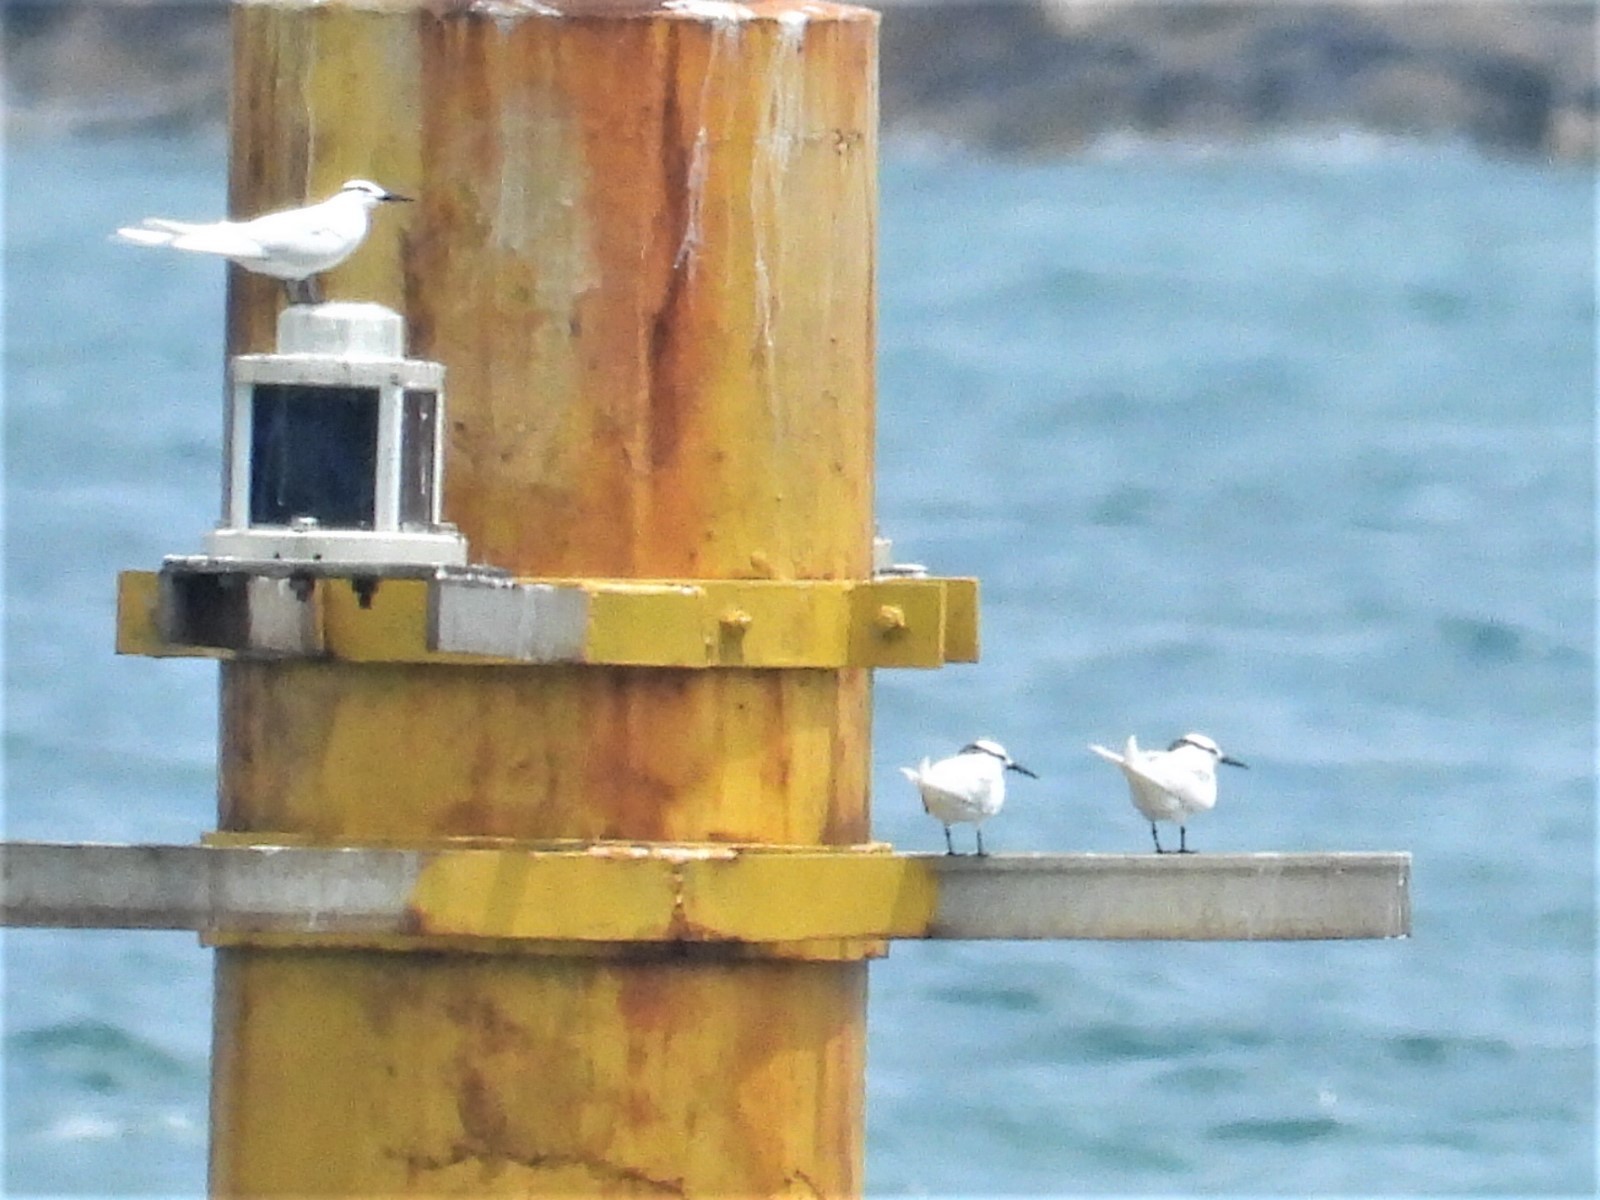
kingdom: Animalia
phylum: Chordata
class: Aves
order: Charadriiformes
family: Laridae
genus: Sterna
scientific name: Sterna sumatrana
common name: Black-naped tern
